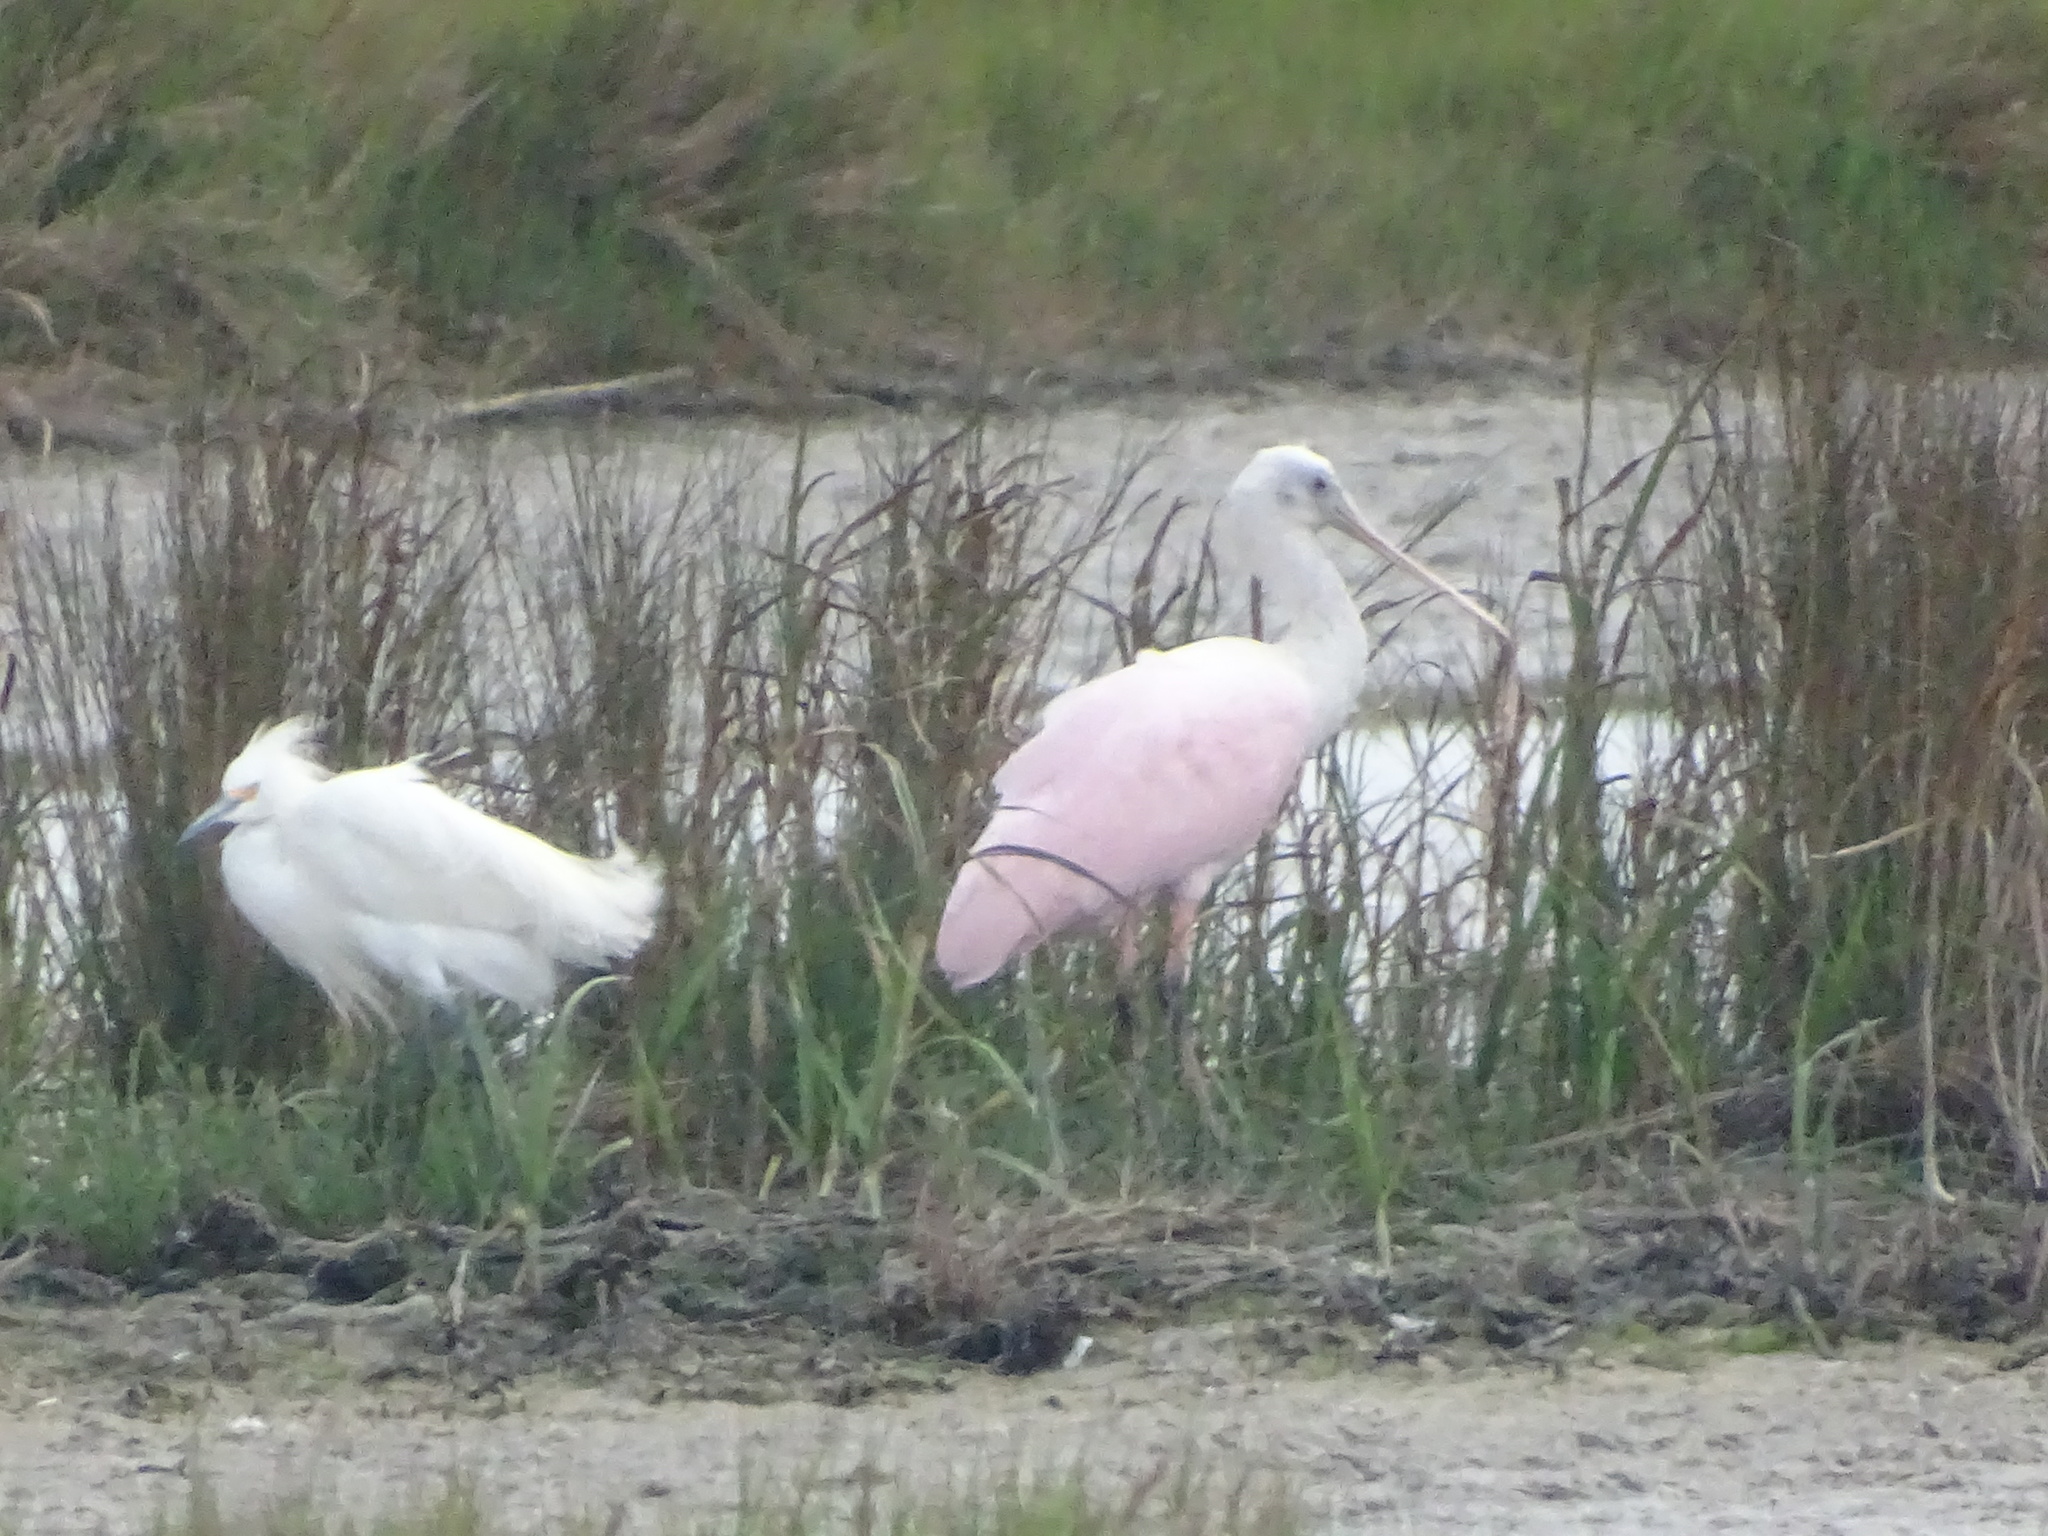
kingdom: Animalia
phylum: Chordata
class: Aves
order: Pelecaniformes
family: Threskiornithidae
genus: Platalea
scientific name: Platalea ajaja
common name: Roseate spoonbill
